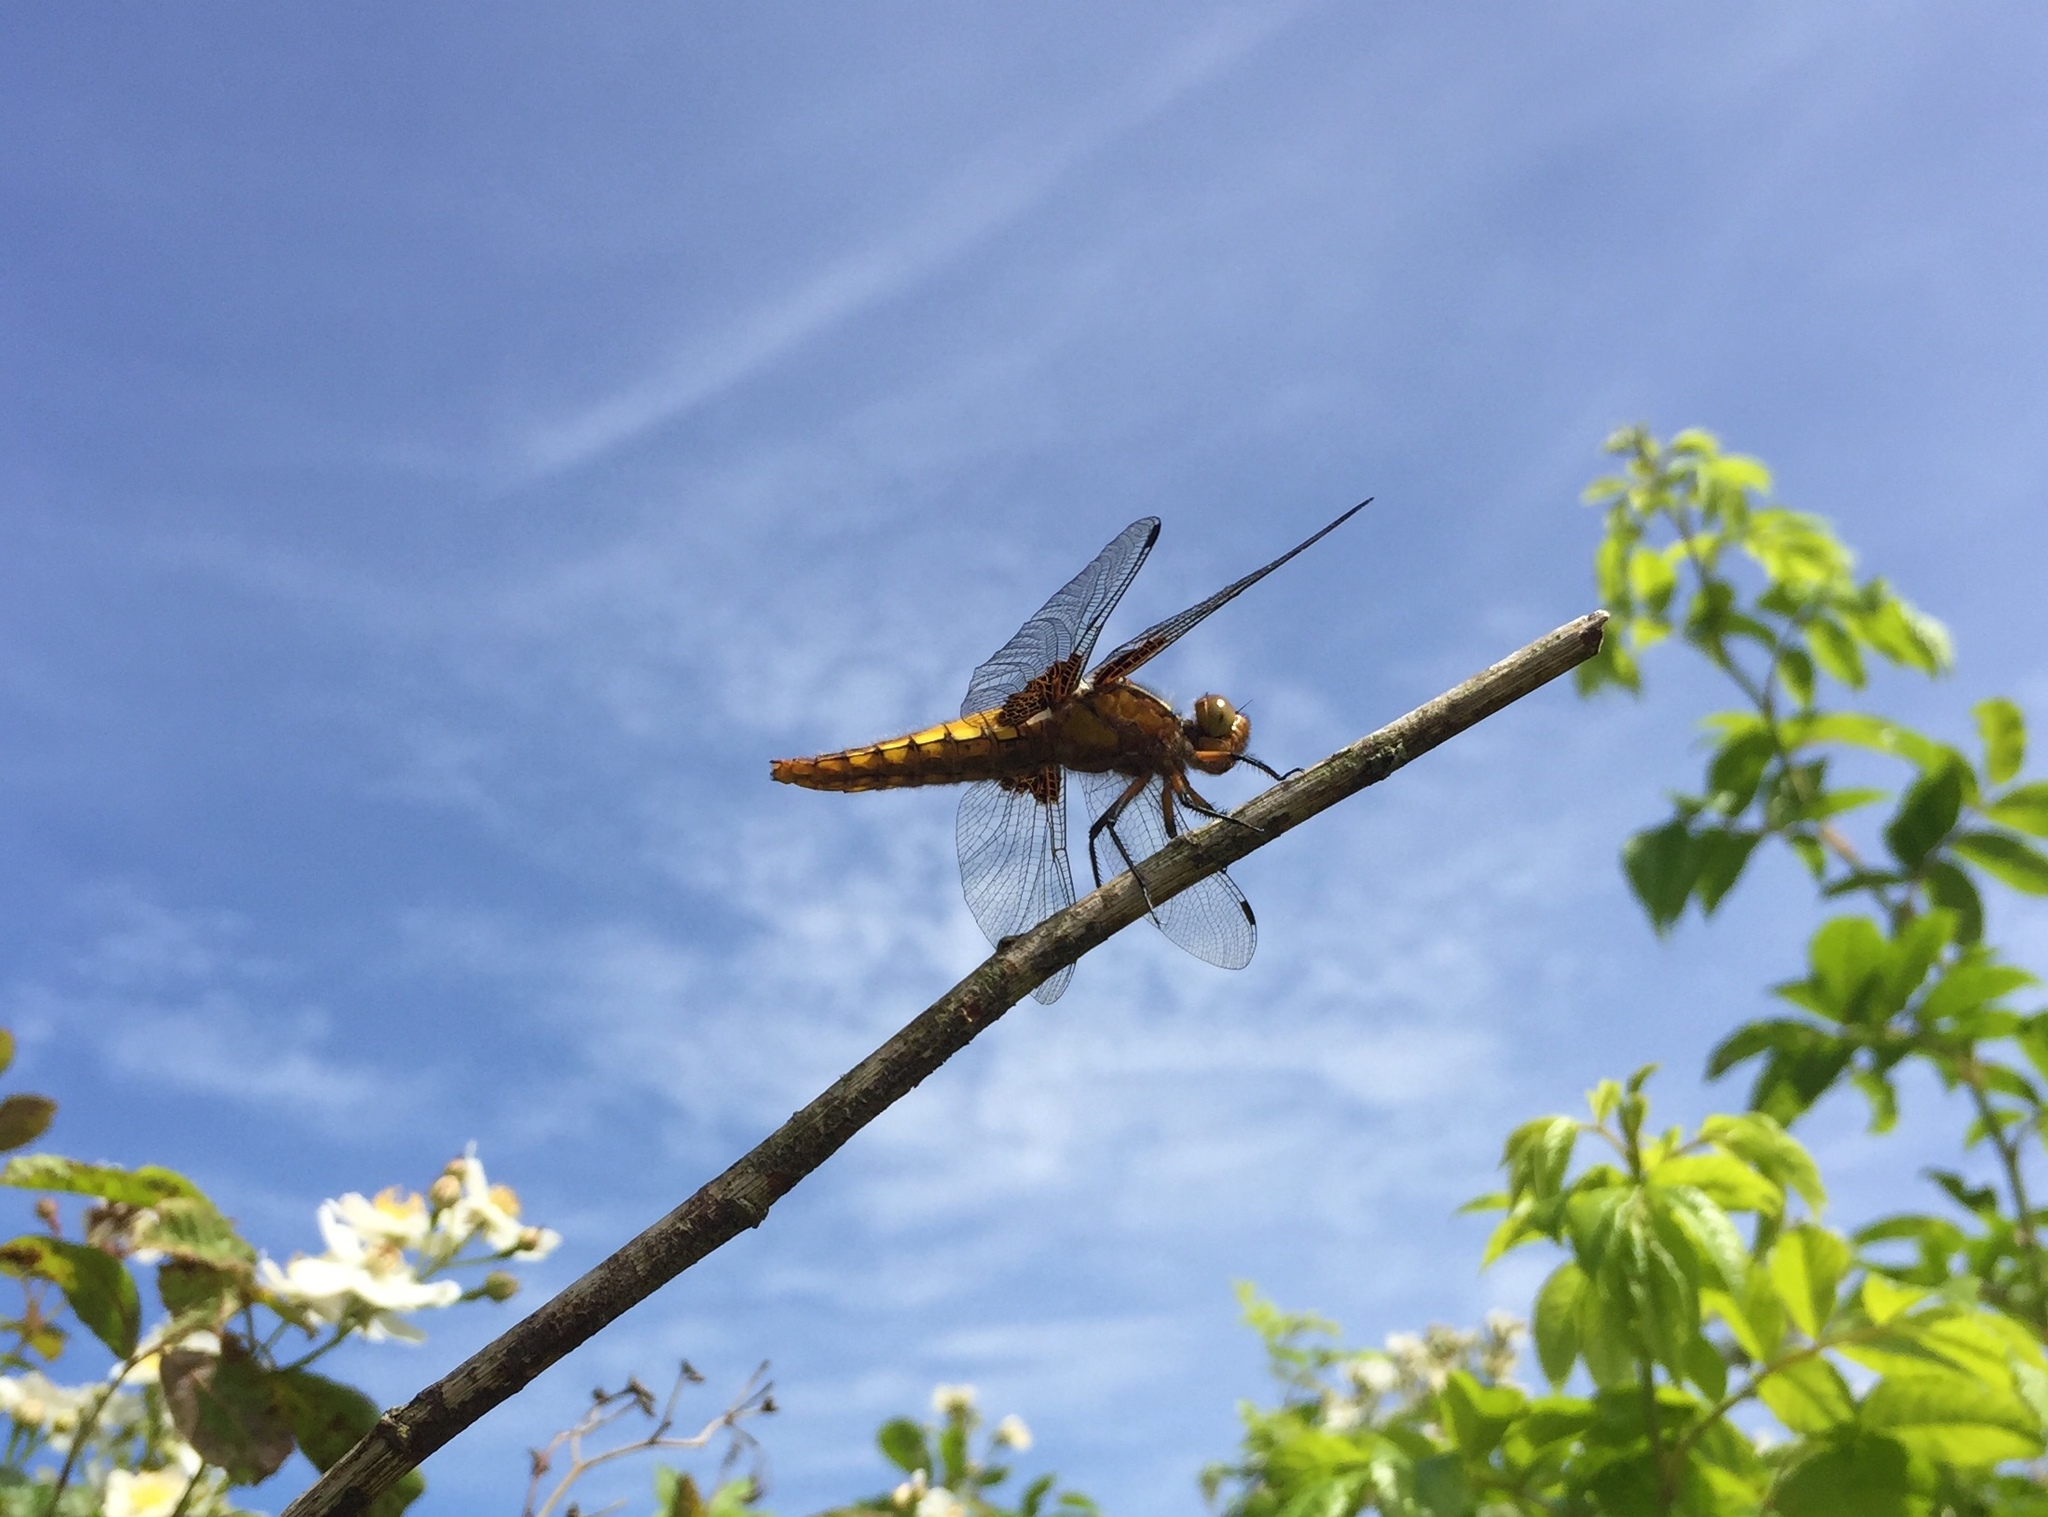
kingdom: Animalia
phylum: Arthropoda
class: Insecta
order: Odonata
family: Libellulidae
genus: Libellula
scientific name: Libellula depressa
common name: Broad-bodied chaser
